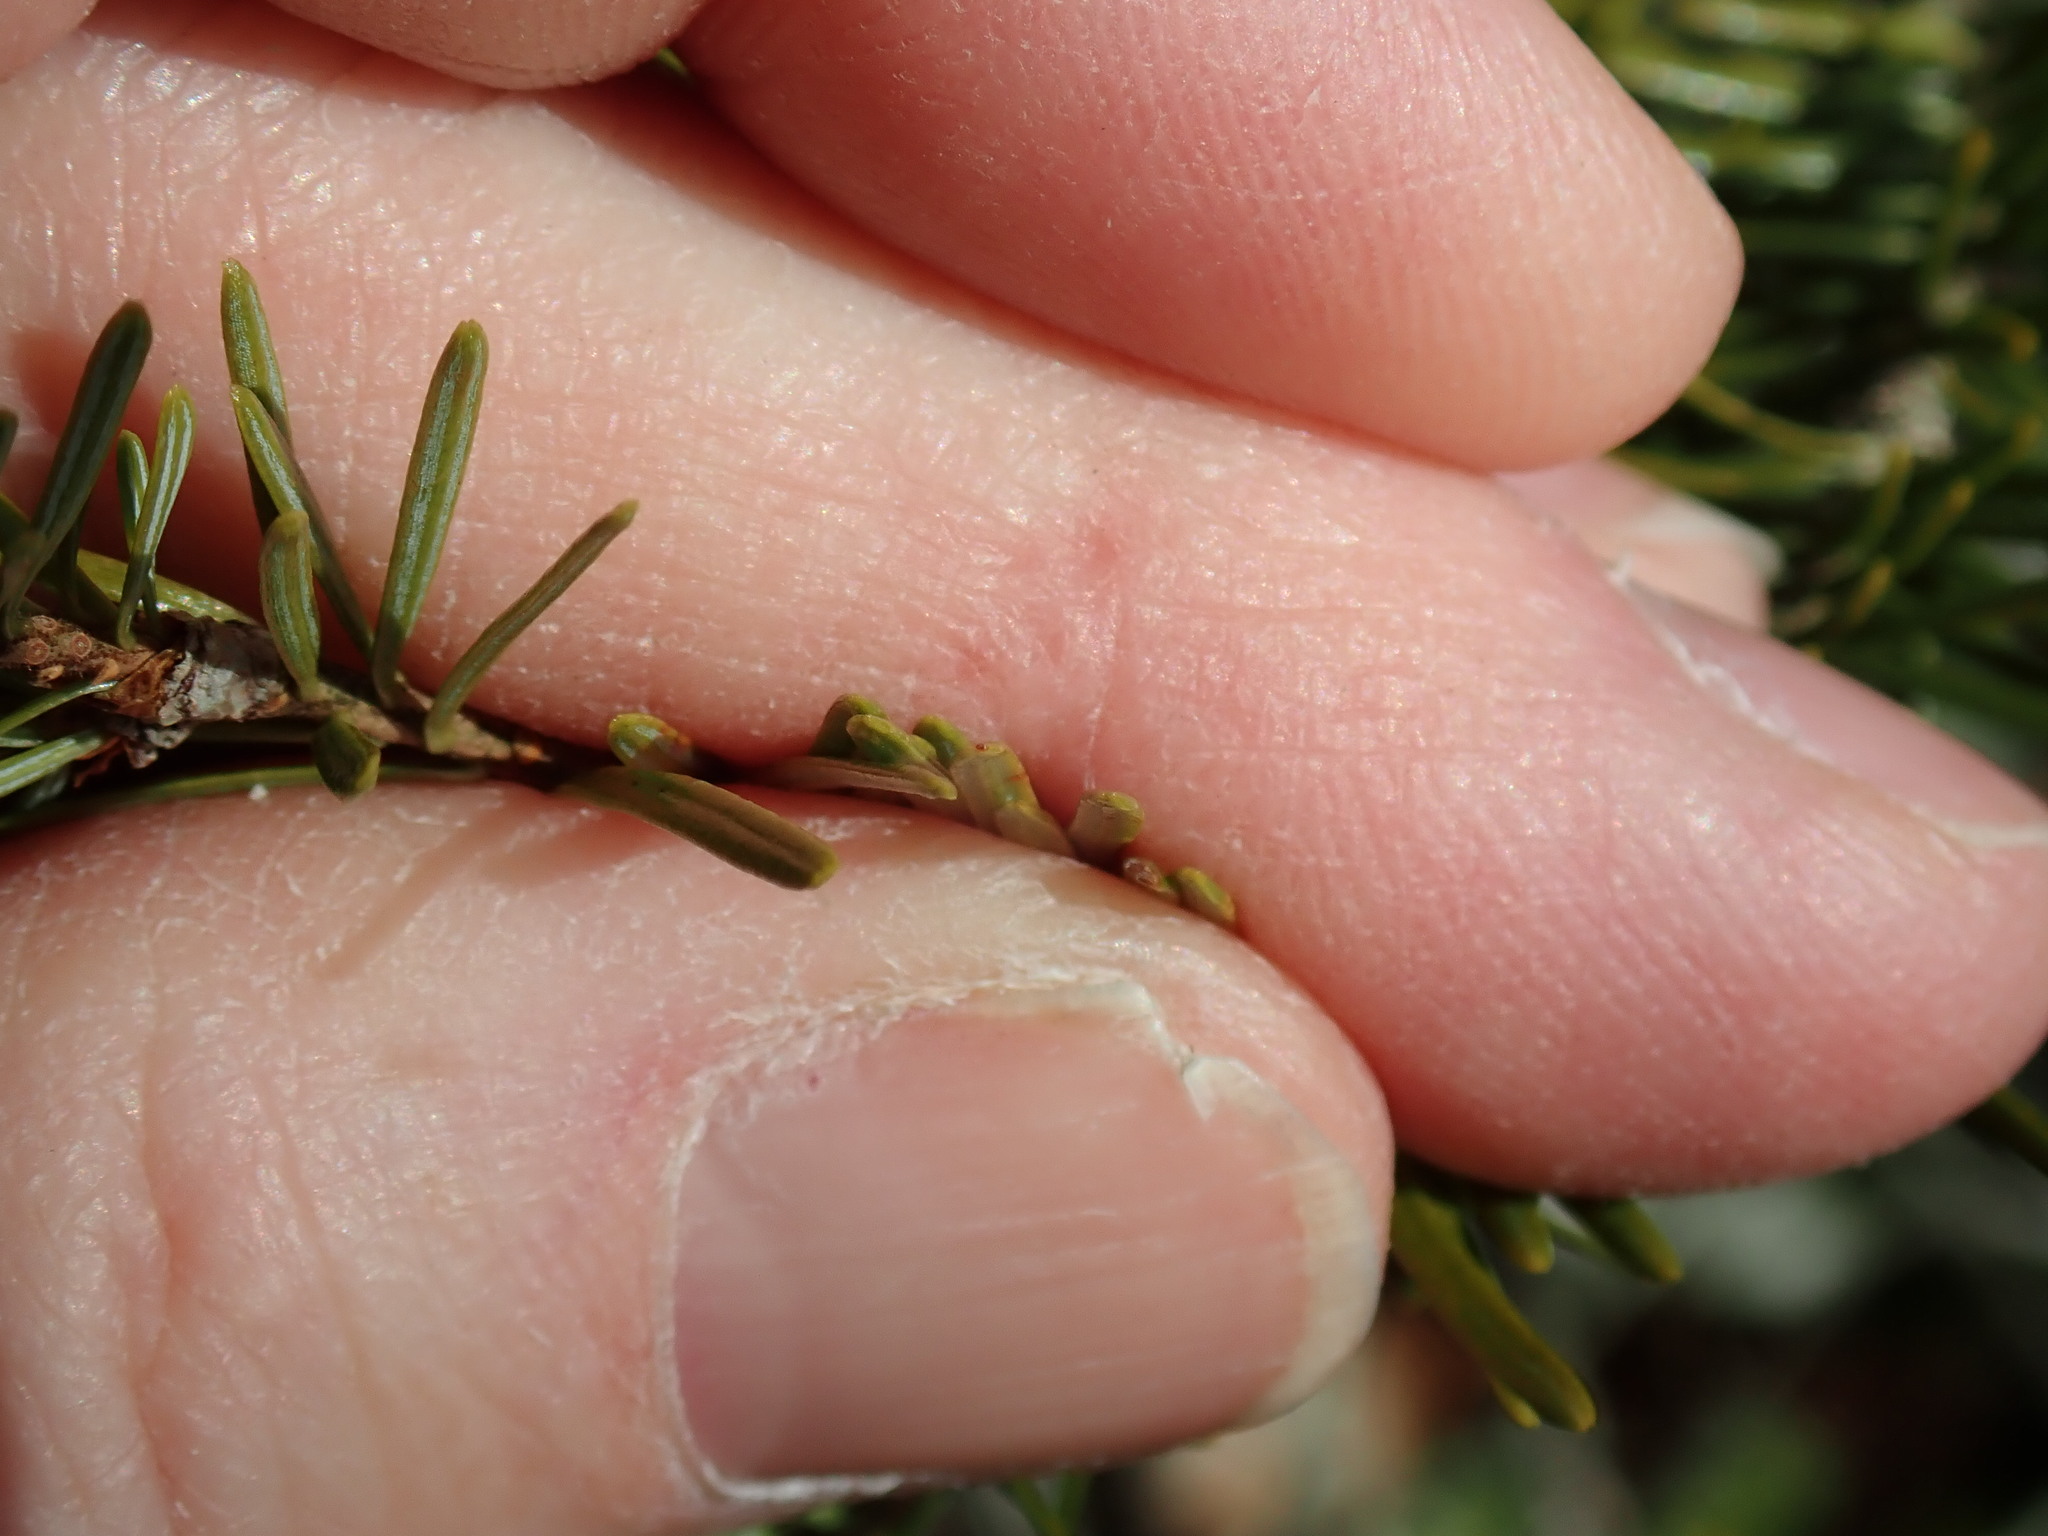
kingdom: Plantae
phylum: Tracheophyta
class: Pinopsida
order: Pinales
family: Pinaceae
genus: Abies
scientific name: Abies balsamea
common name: Balsam fir
